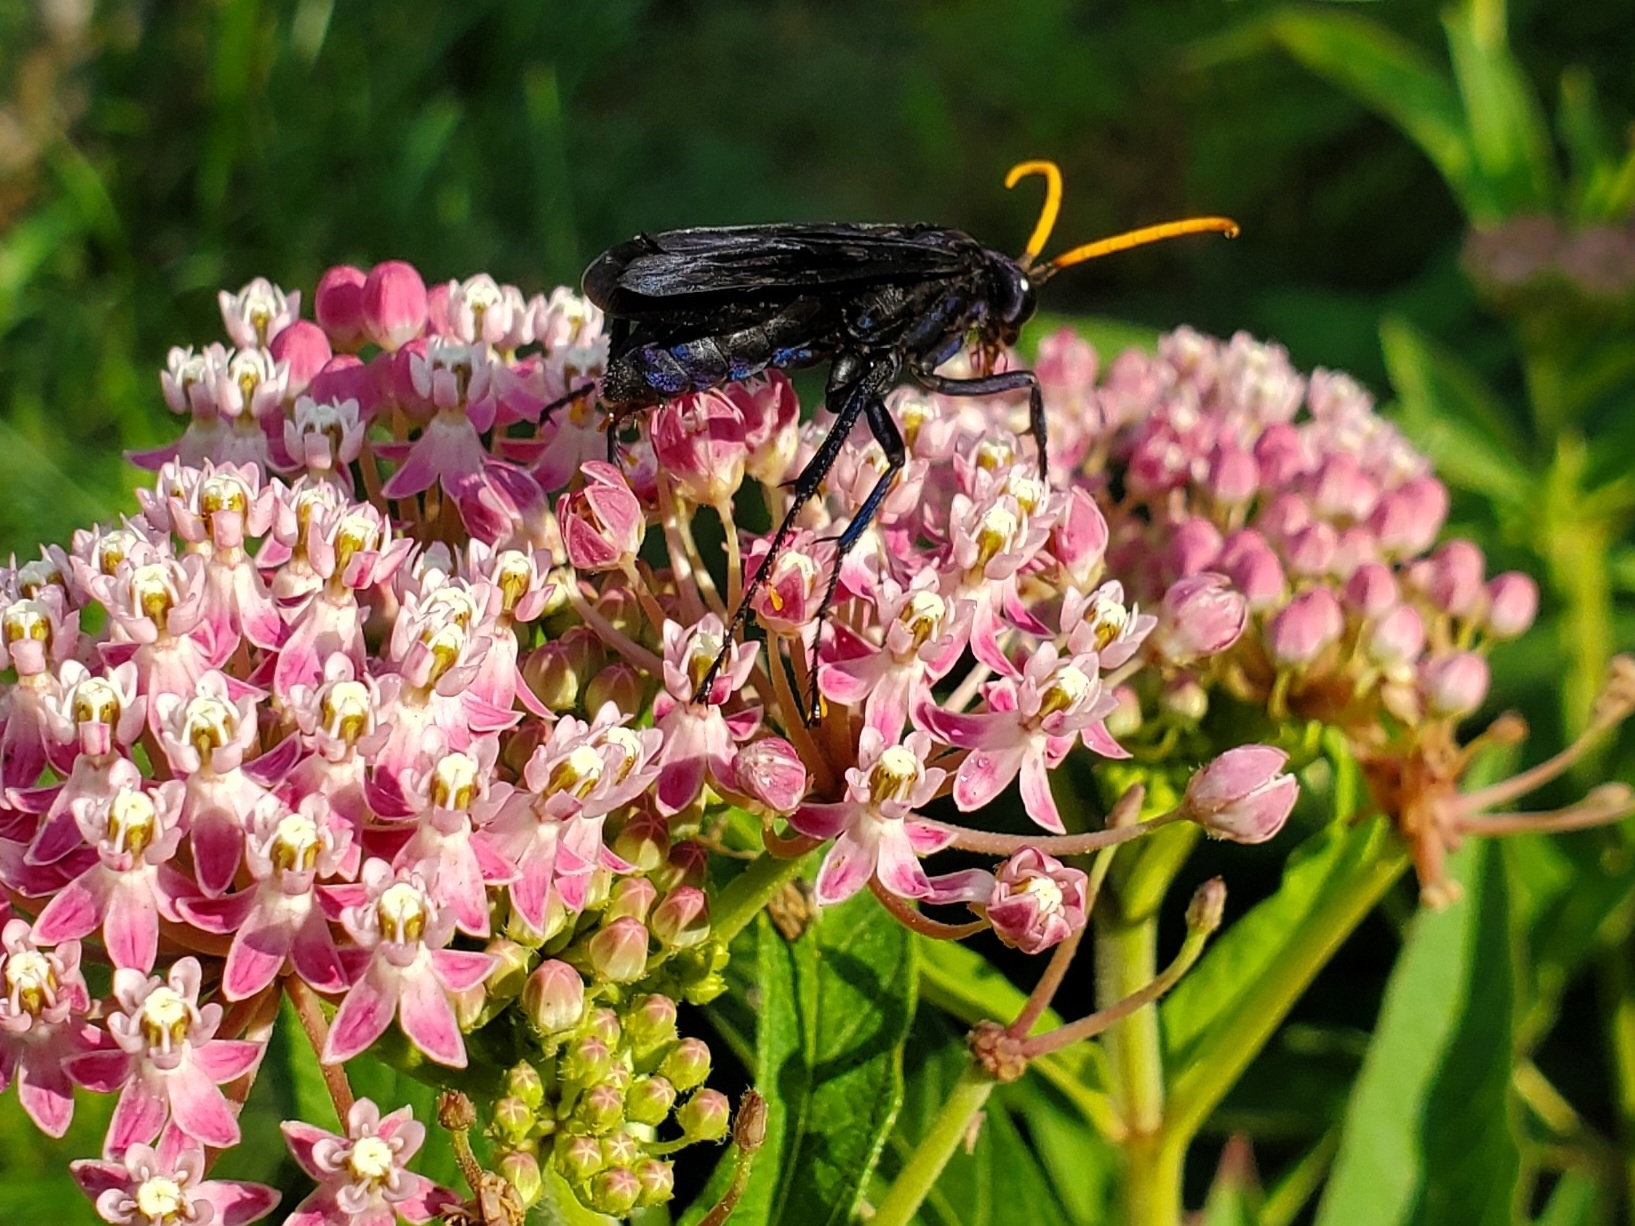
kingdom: Animalia
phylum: Arthropoda
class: Insecta
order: Hymenoptera
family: Pompilidae
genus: Pepsis
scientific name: Pepsis menechma
